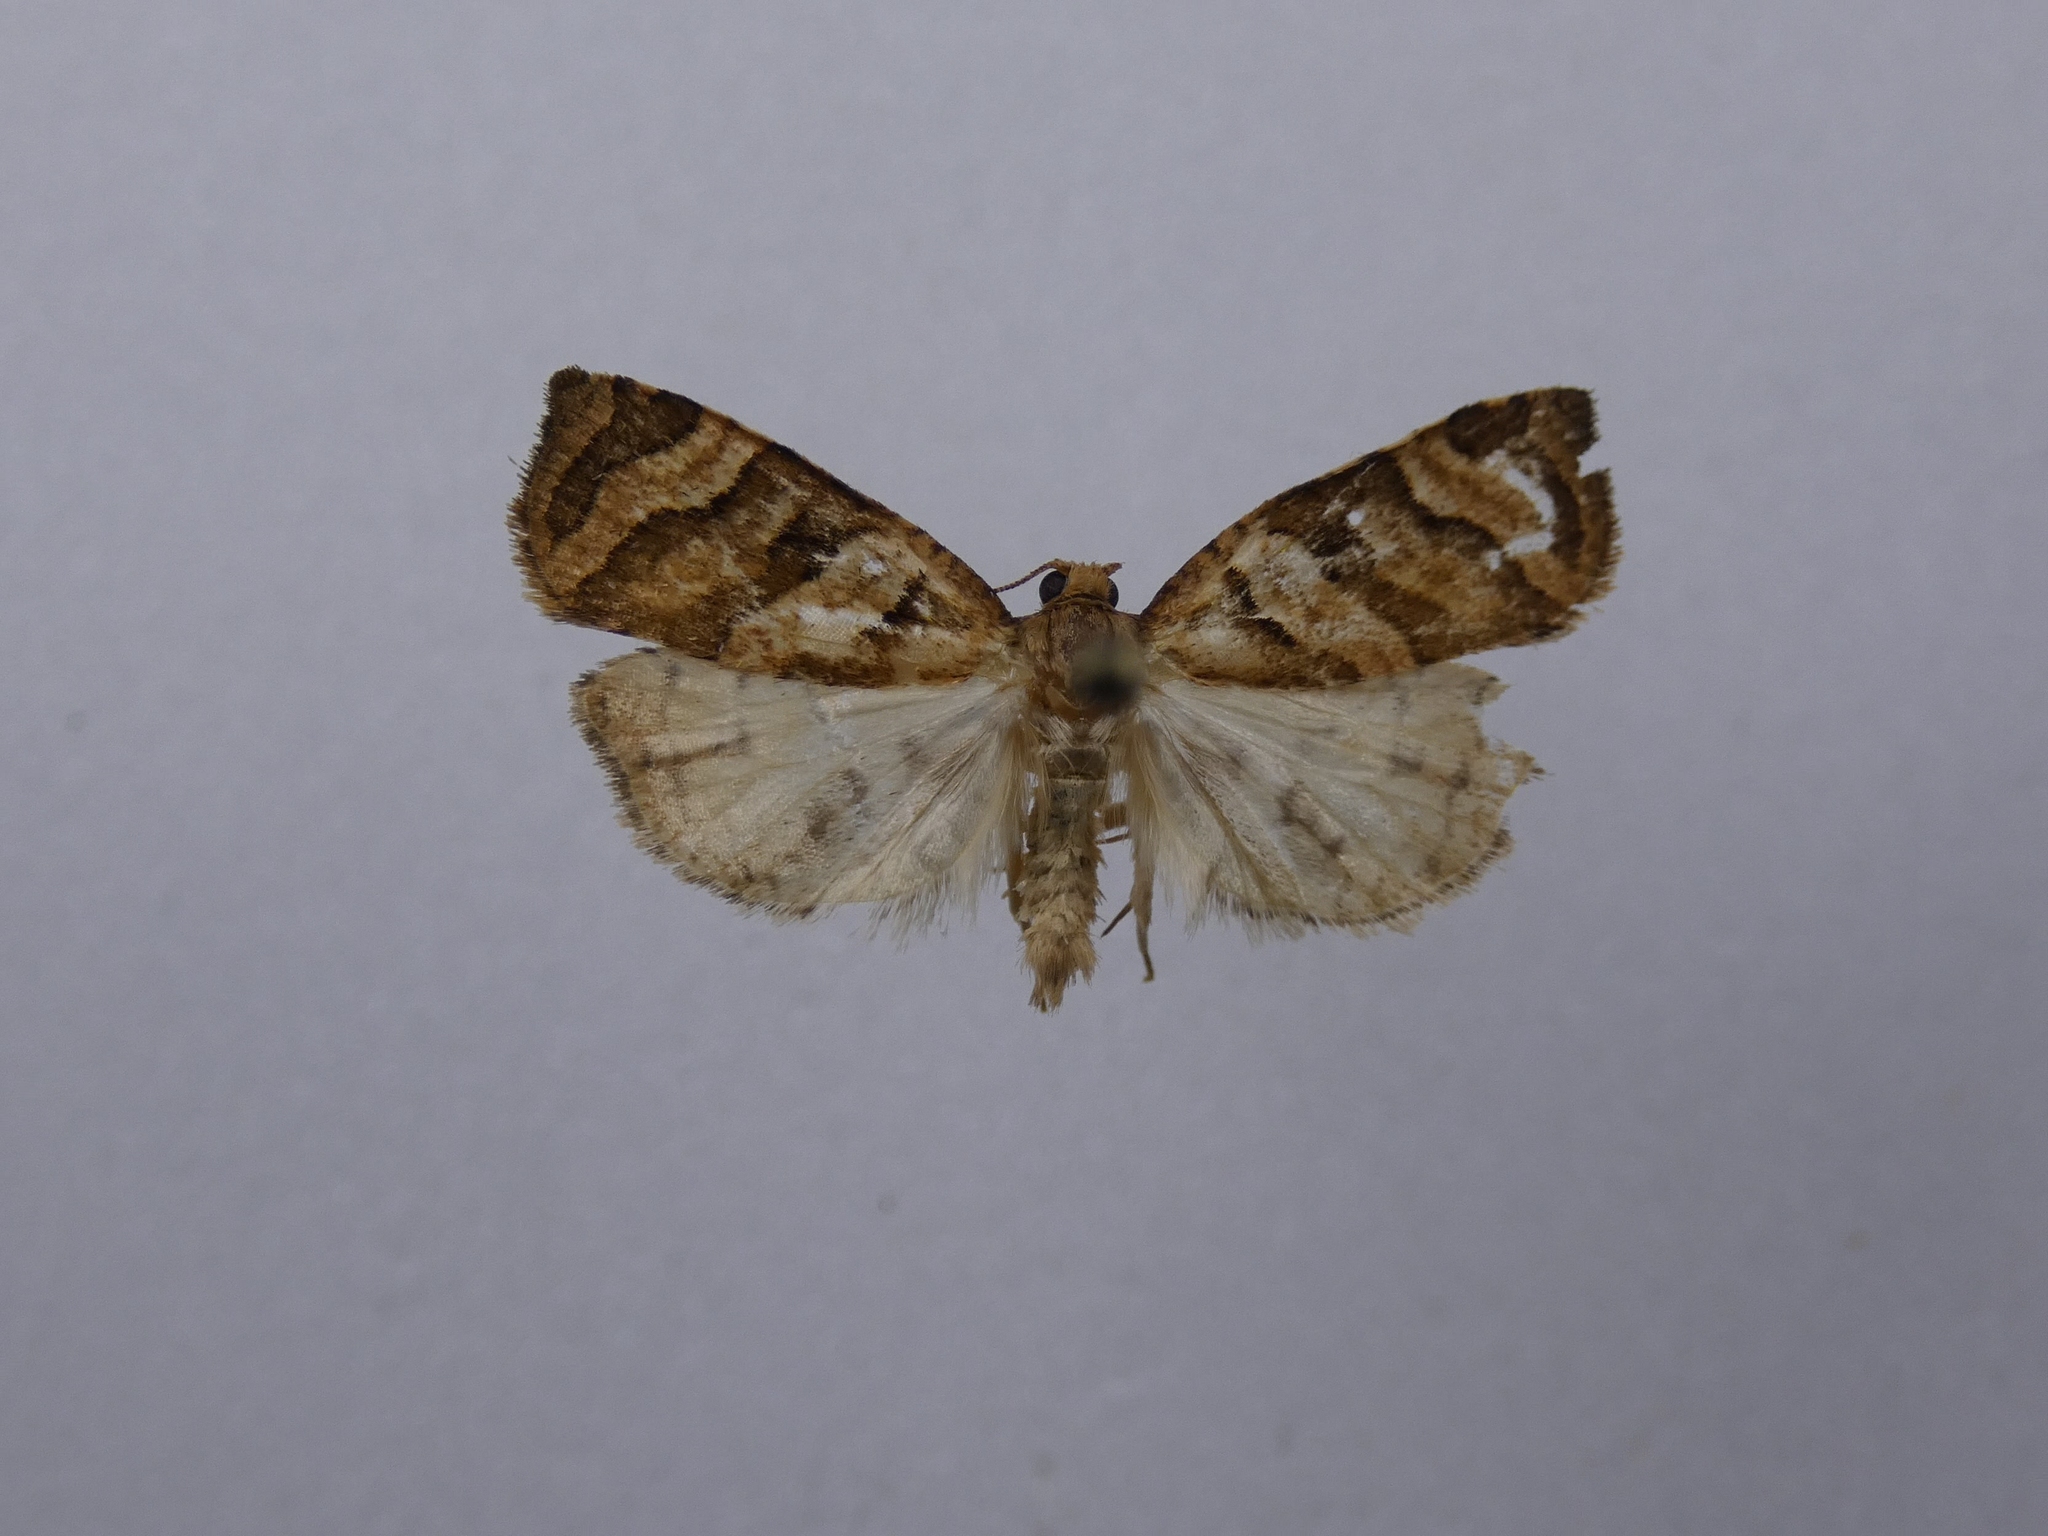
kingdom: Animalia
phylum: Arthropoda
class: Insecta
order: Lepidoptera
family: Tortricidae
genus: Apoctena
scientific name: Apoctena tigris
